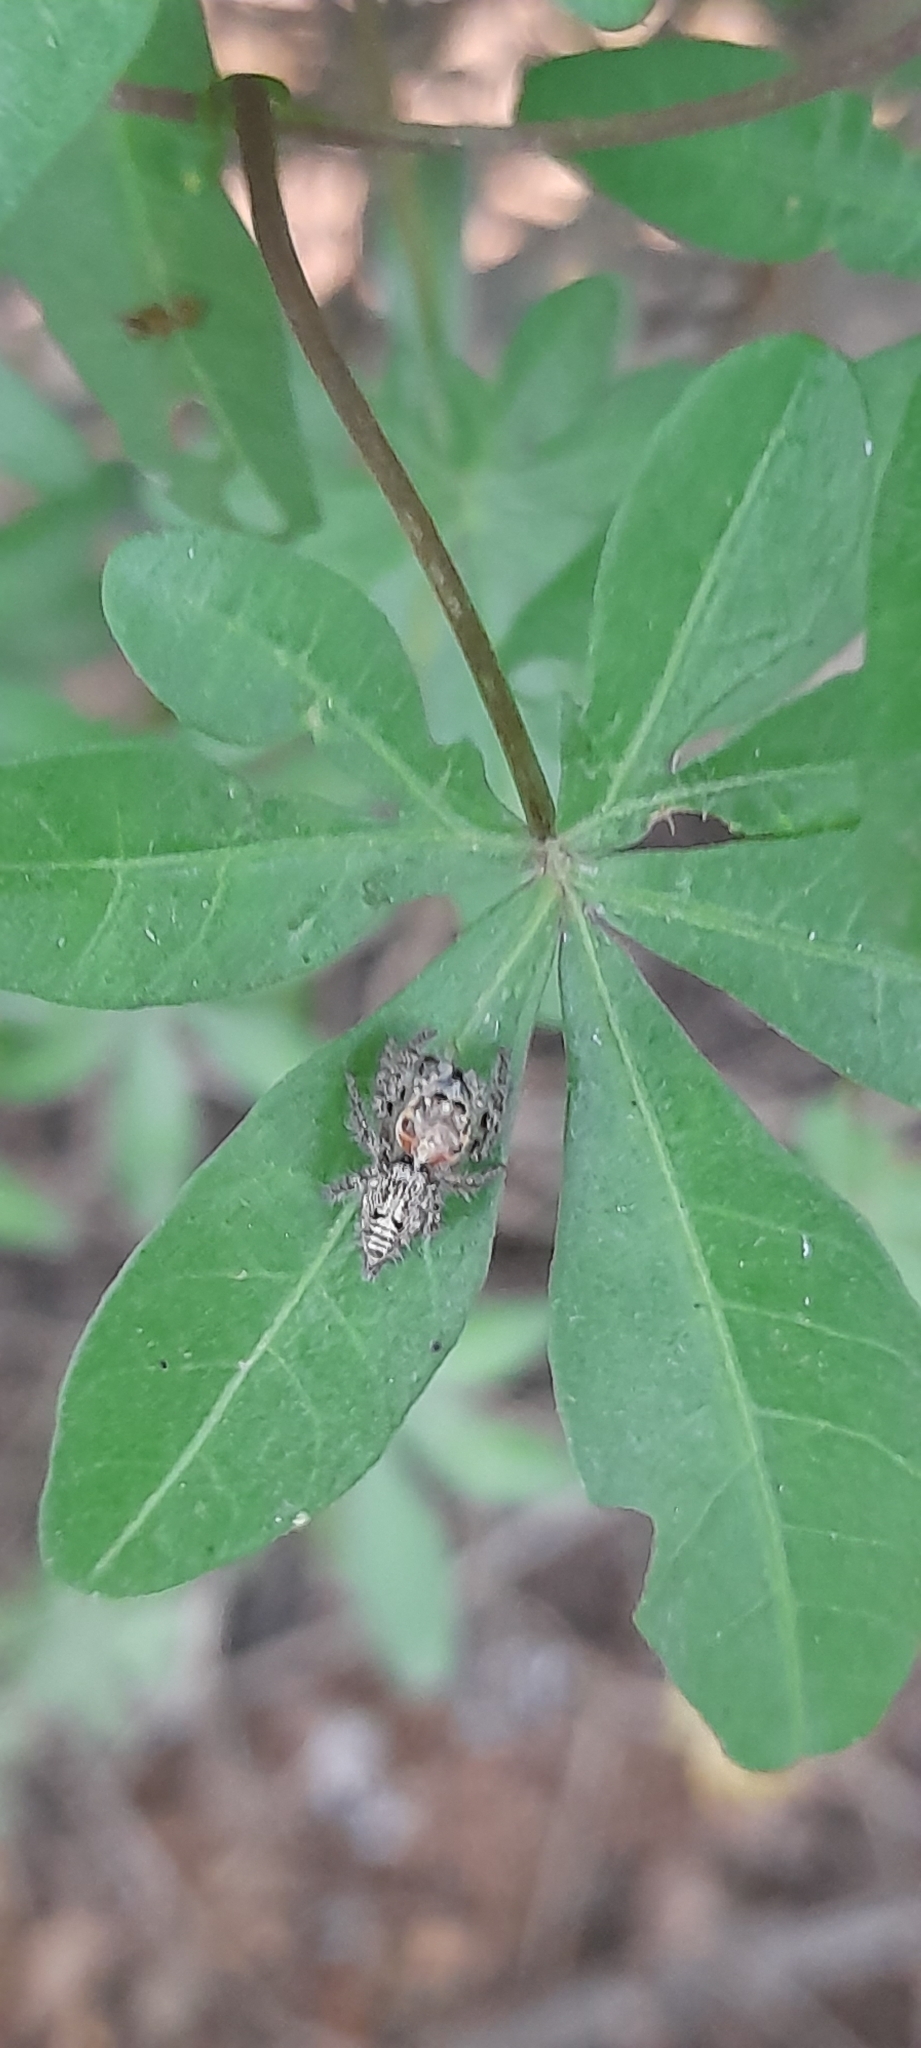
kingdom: Animalia
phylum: Arthropoda
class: Arachnida
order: Araneae
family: Salticidae
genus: Hyllus
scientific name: Hyllus semicupreus
